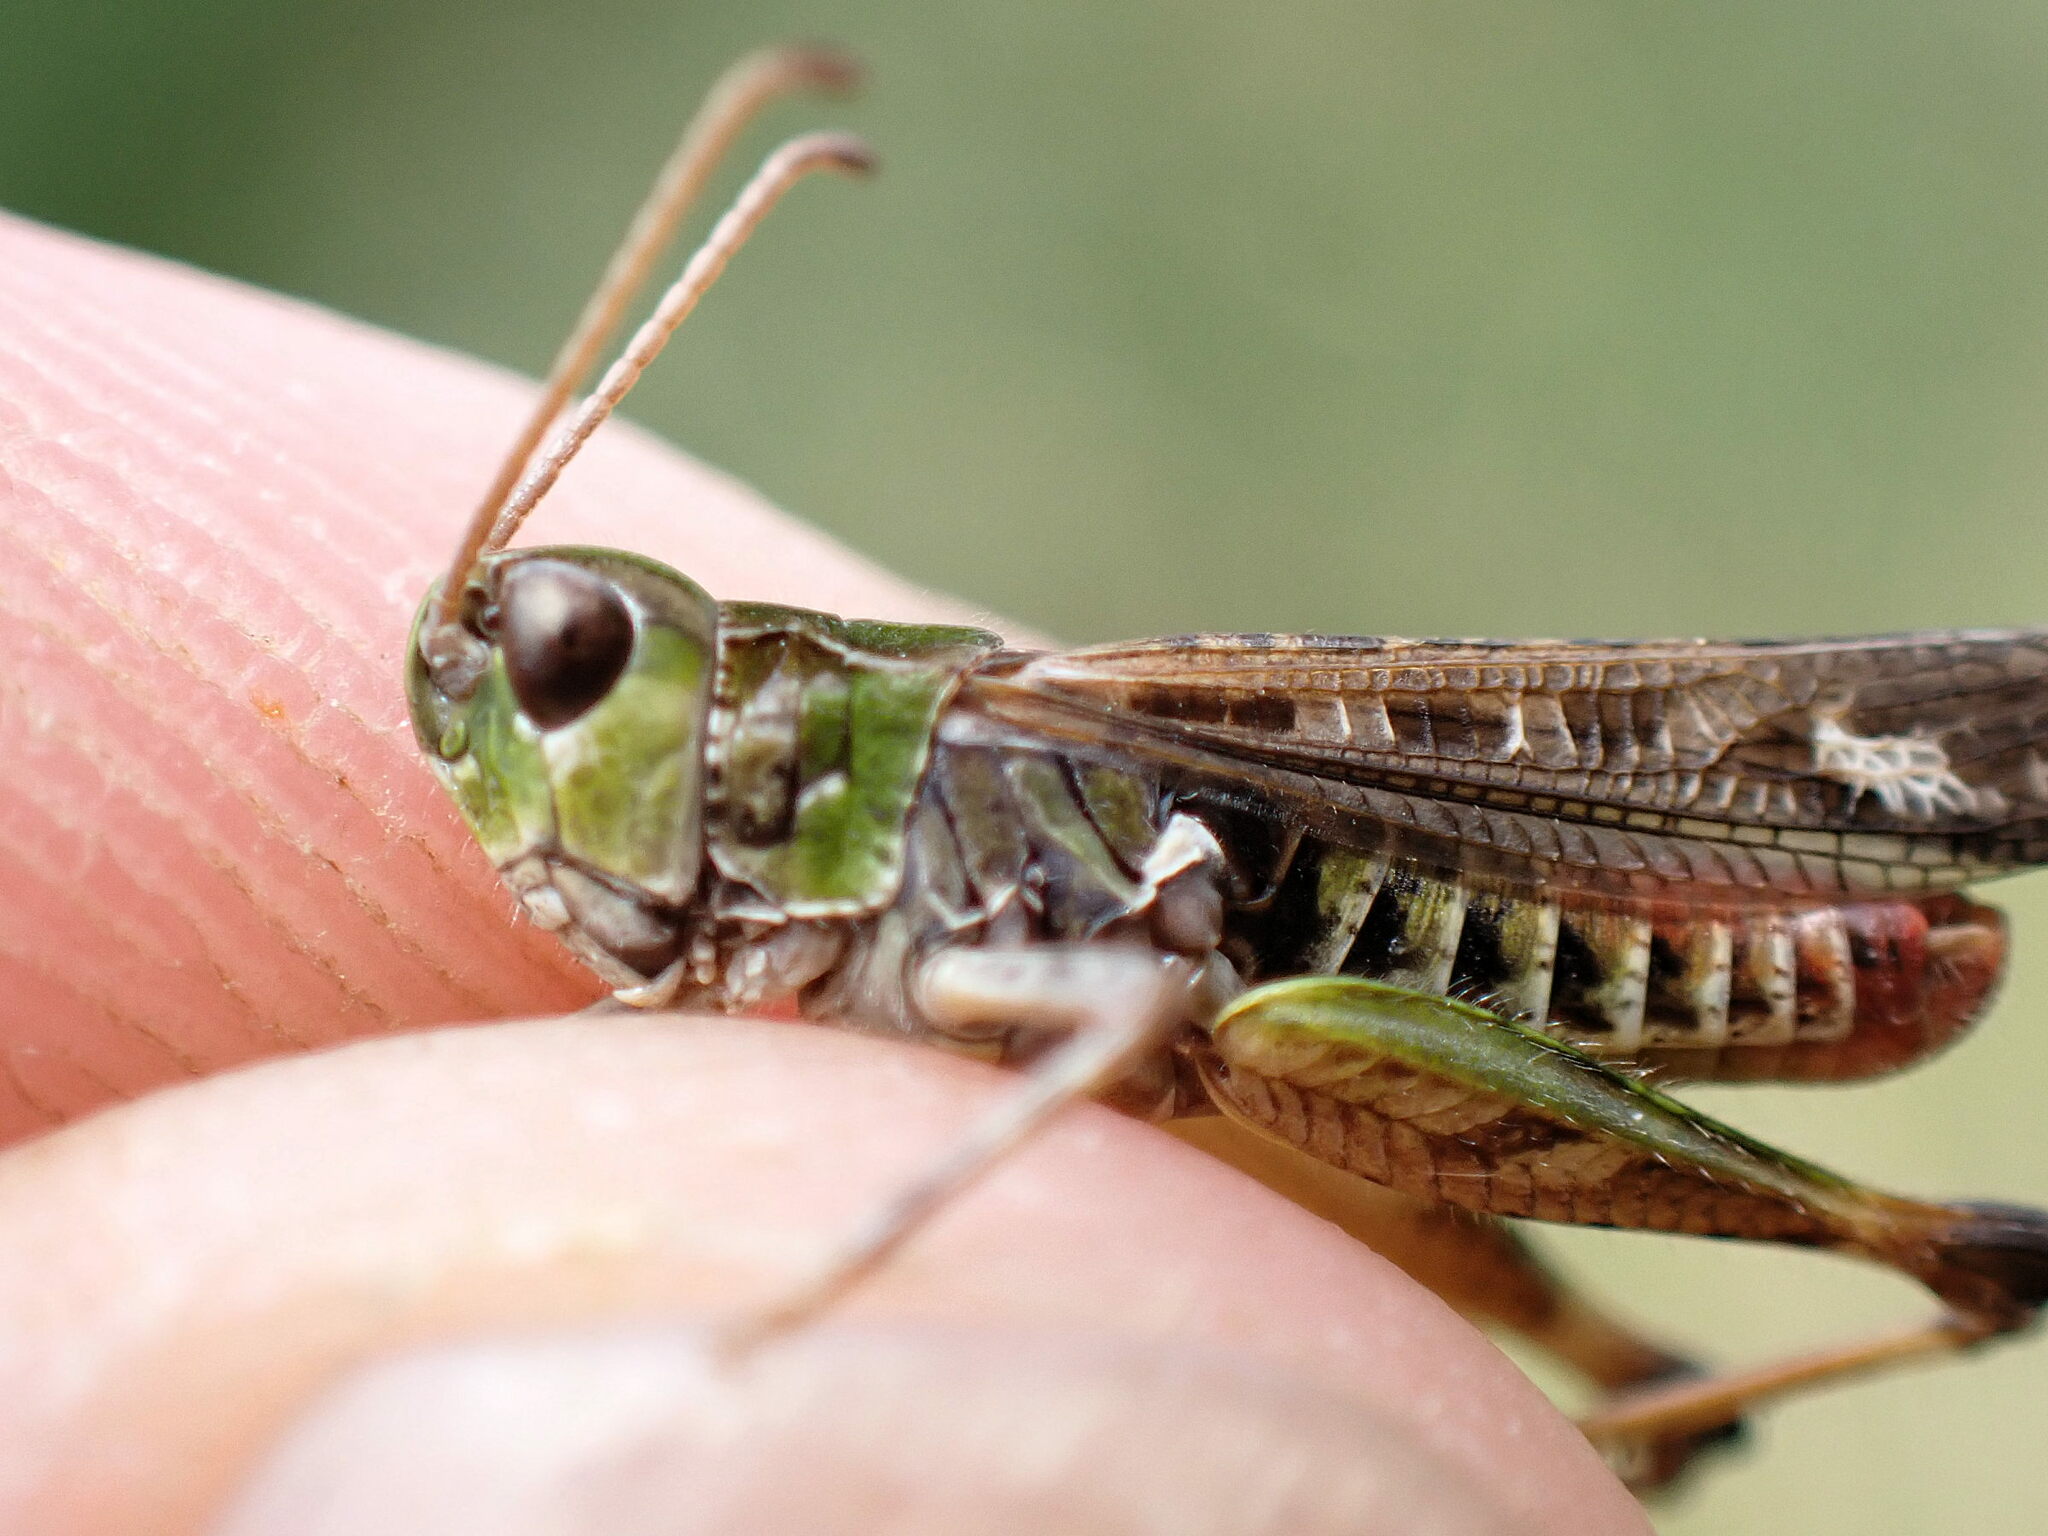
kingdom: Animalia
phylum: Arthropoda
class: Insecta
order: Orthoptera
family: Acrididae
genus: Myrmeleotettix
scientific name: Myrmeleotettix maculatus
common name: Mottled grasshopper
